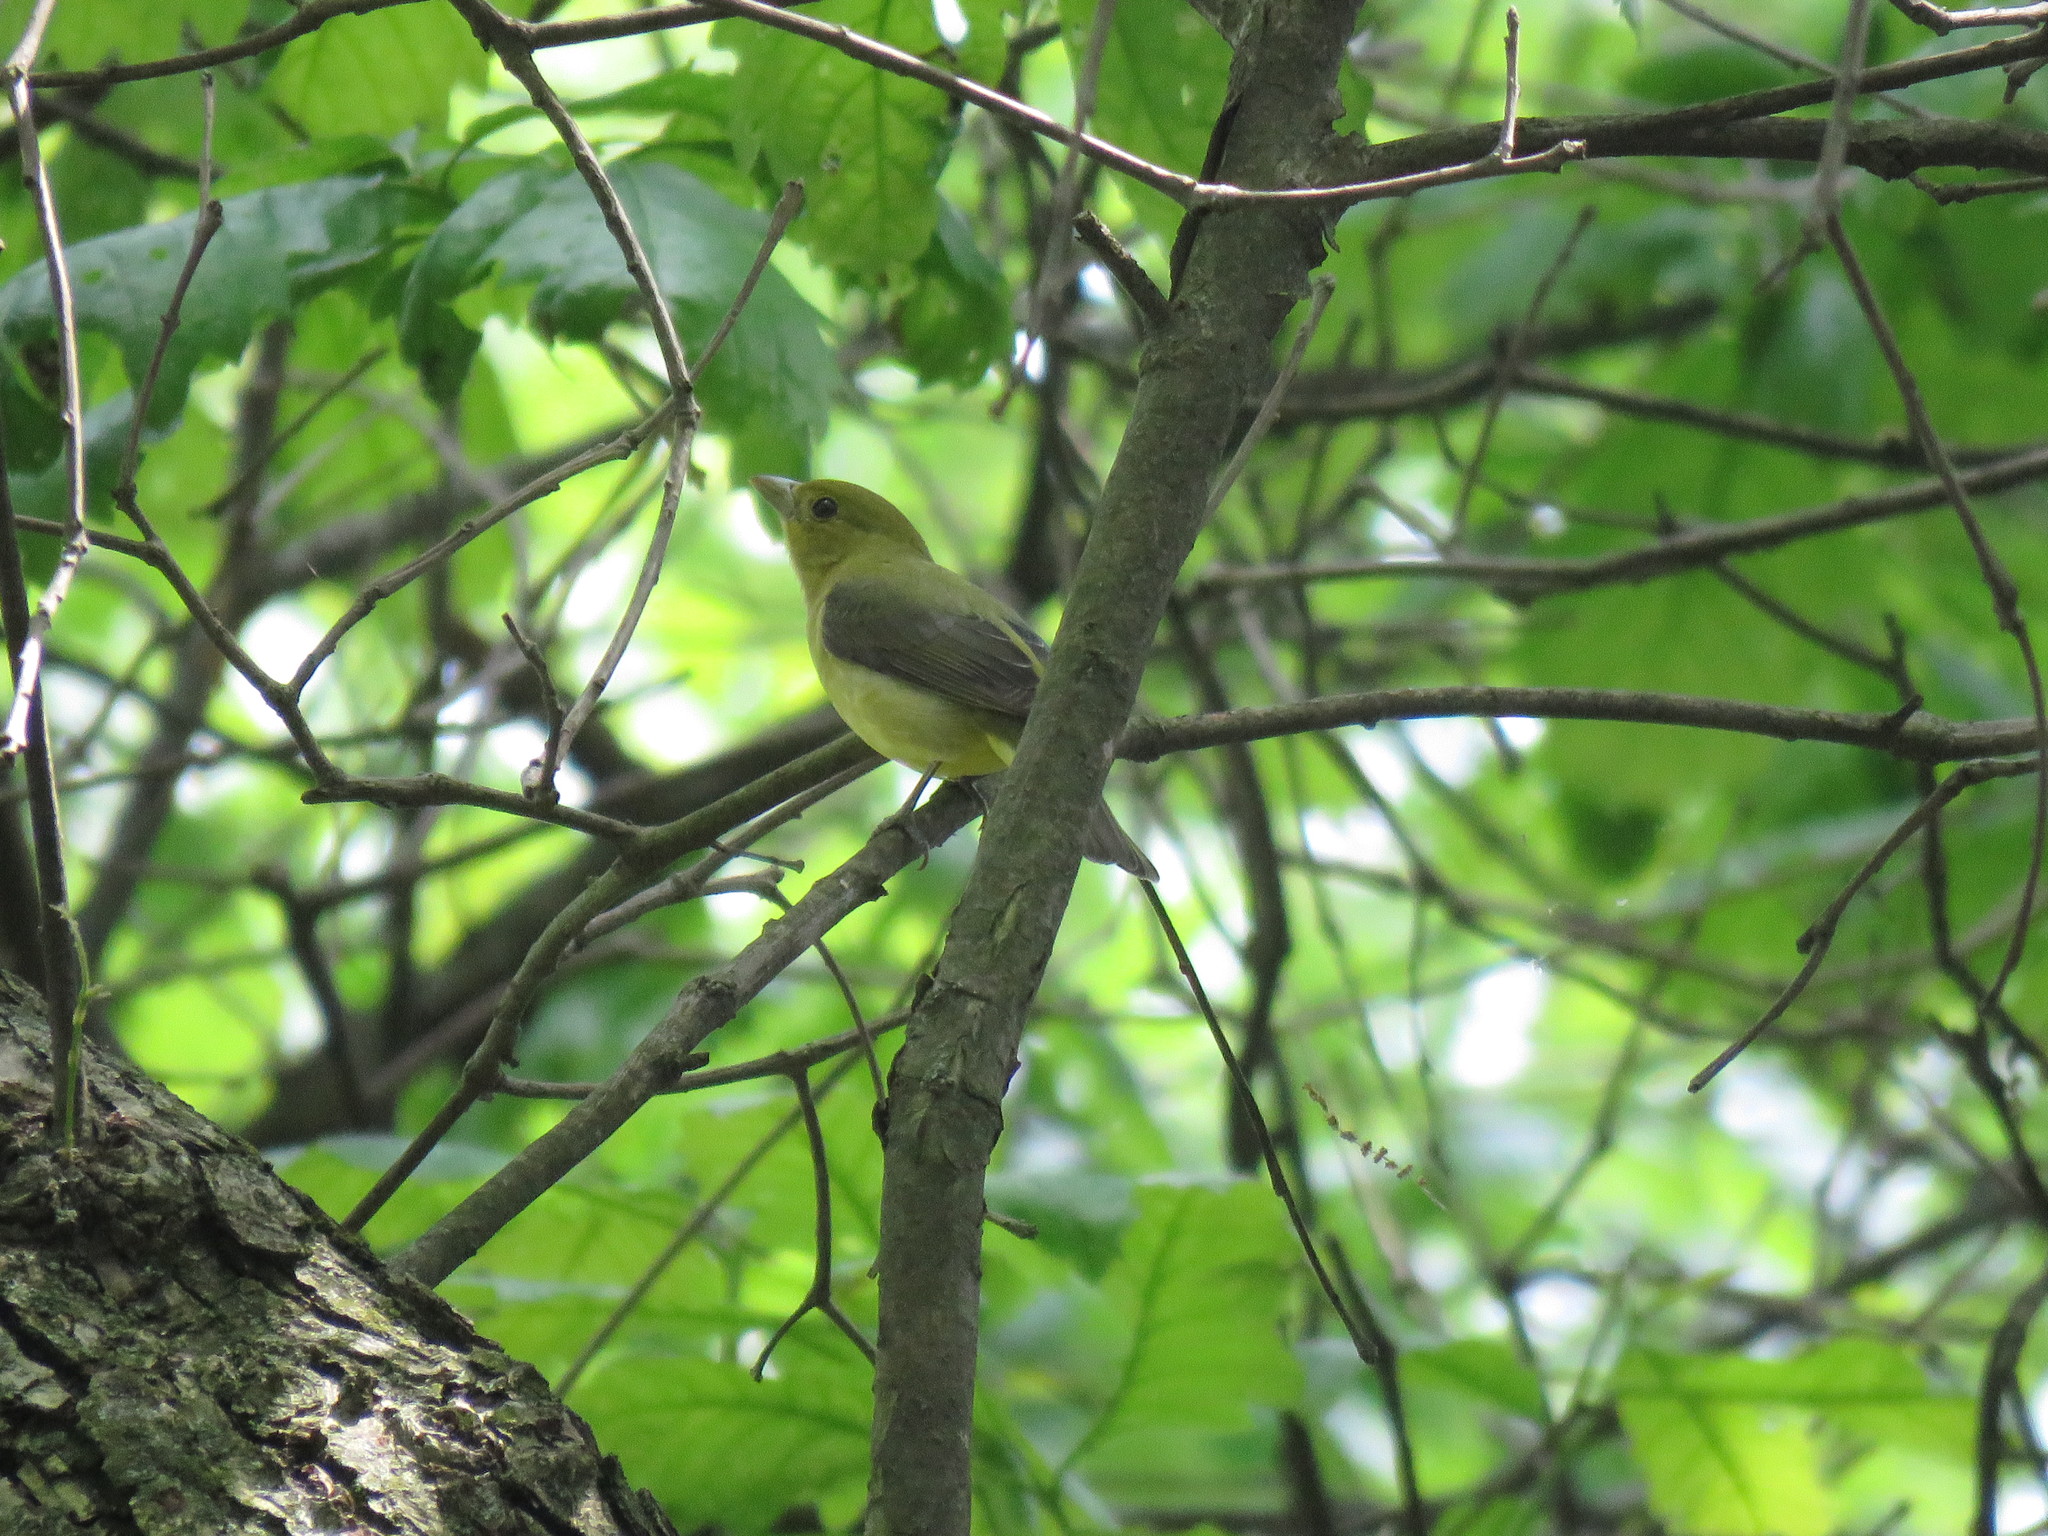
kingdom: Animalia
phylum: Chordata
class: Aves
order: Passeriformes
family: Cardinalidae
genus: Piranga
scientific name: Piranga olivacea
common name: Scarlet tanager
